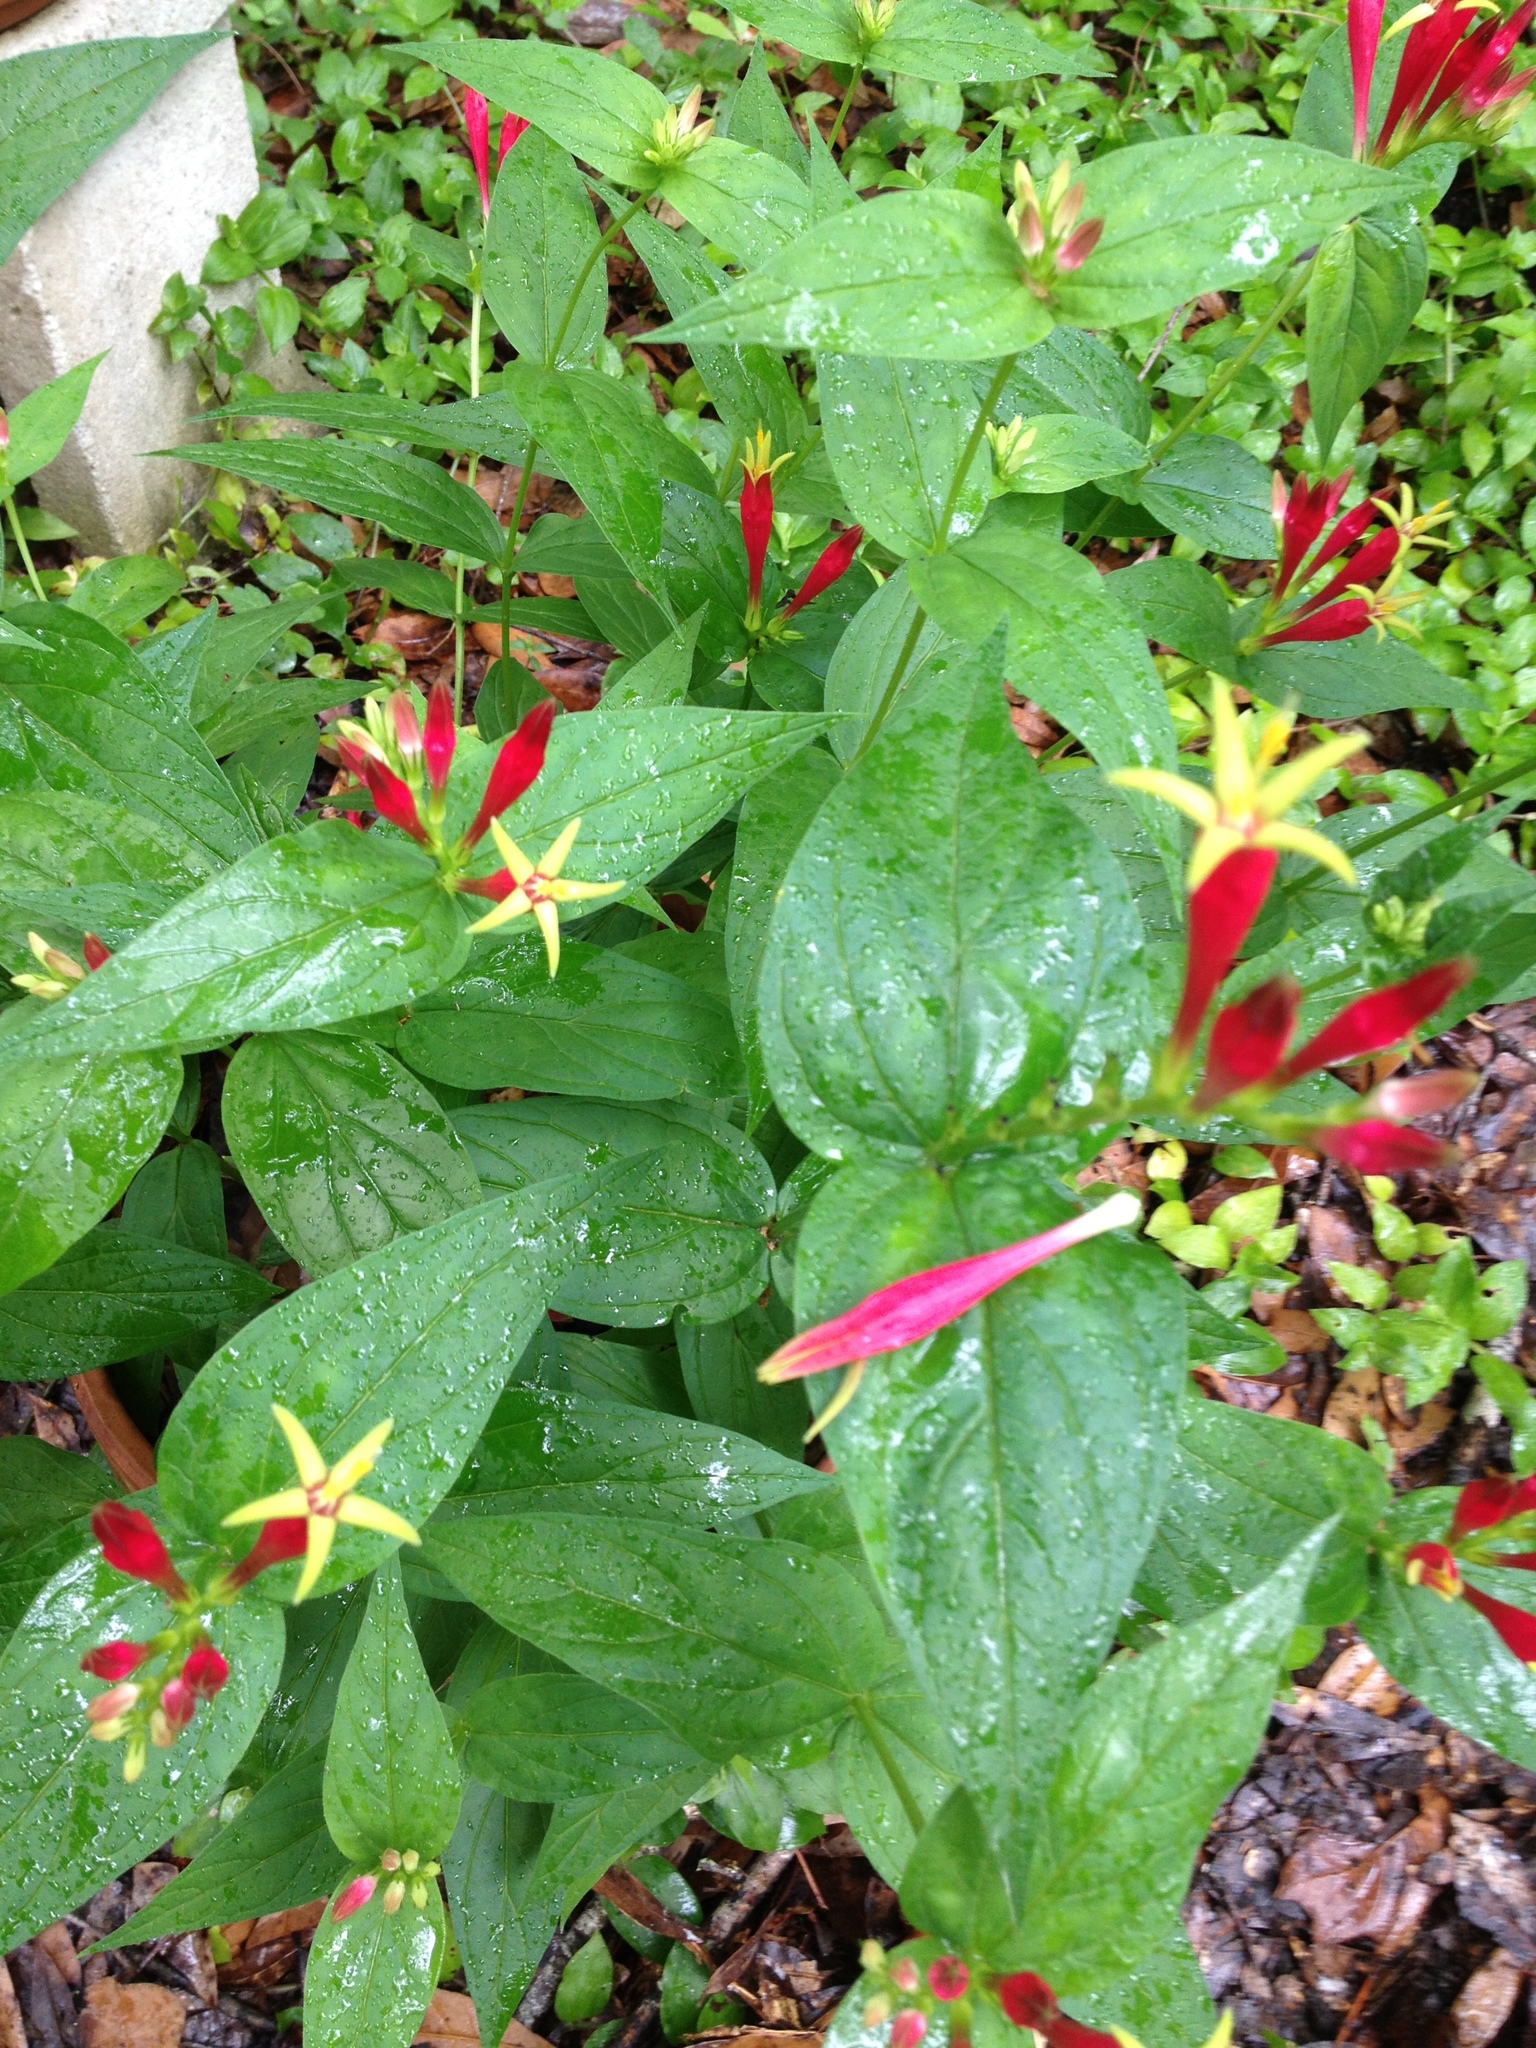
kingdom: Plantae
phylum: Tracheophyta
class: Magnoliopsida
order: Gentianales
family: Loganiaceae
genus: Spigelia
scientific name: Spigelia marilandica
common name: Indian-pink
